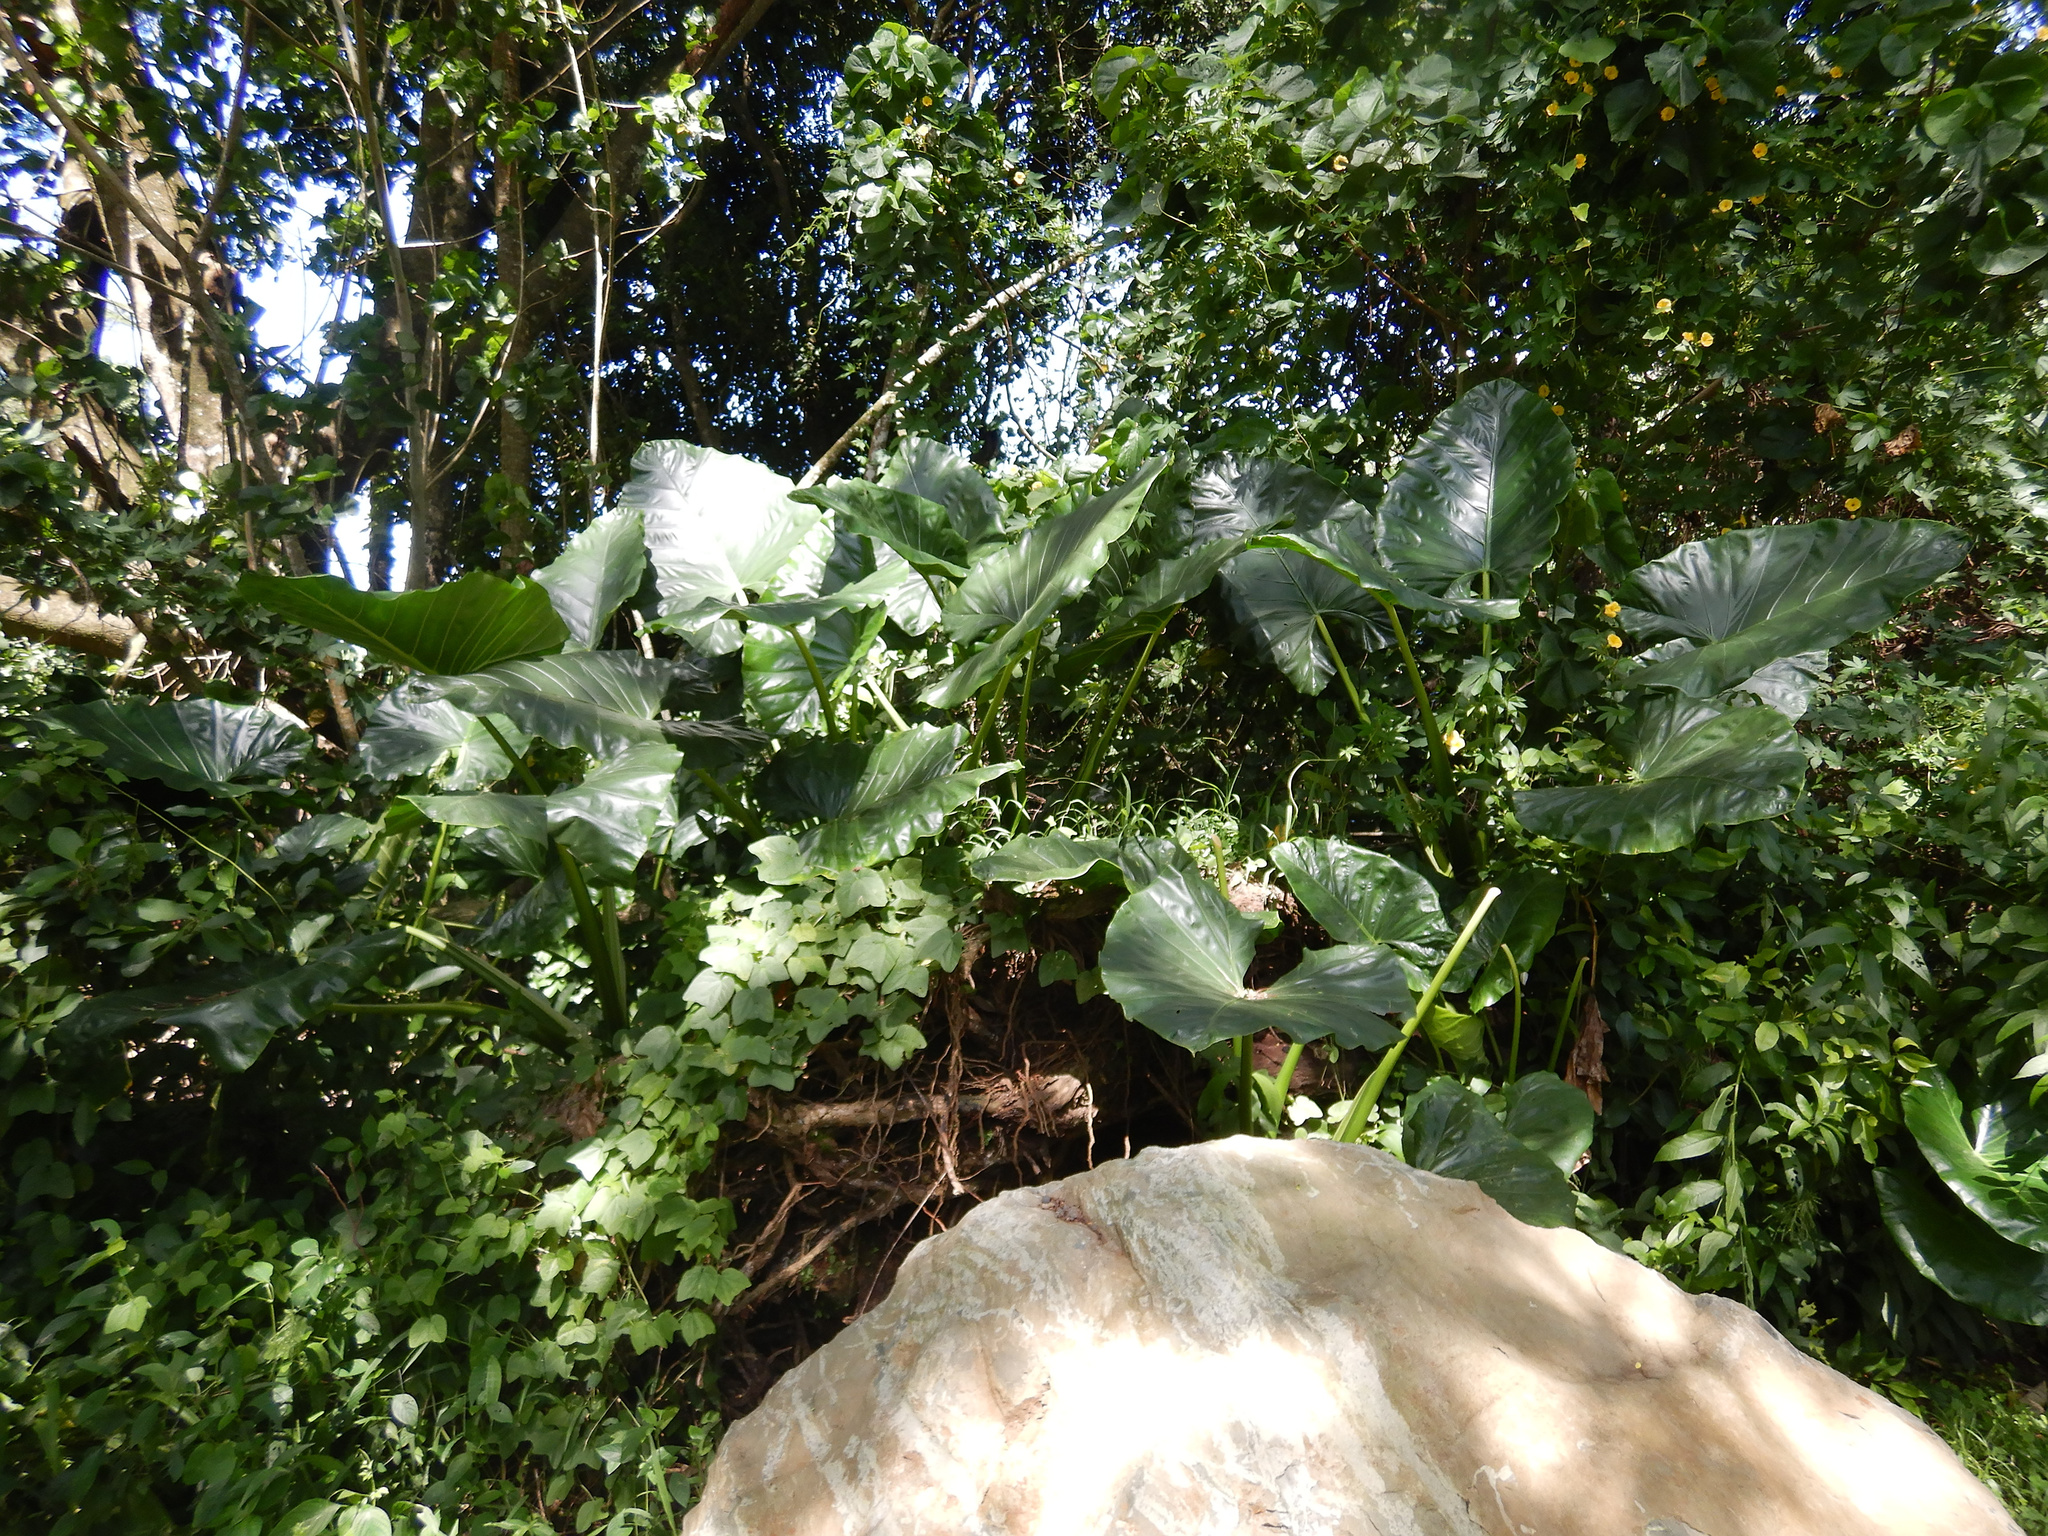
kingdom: Plantae
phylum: Tracheophyta
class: Liliopsida
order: Alismatales
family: Araceae
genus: Alocasia
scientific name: Alocasia macrorrhizos
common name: Giant taro
